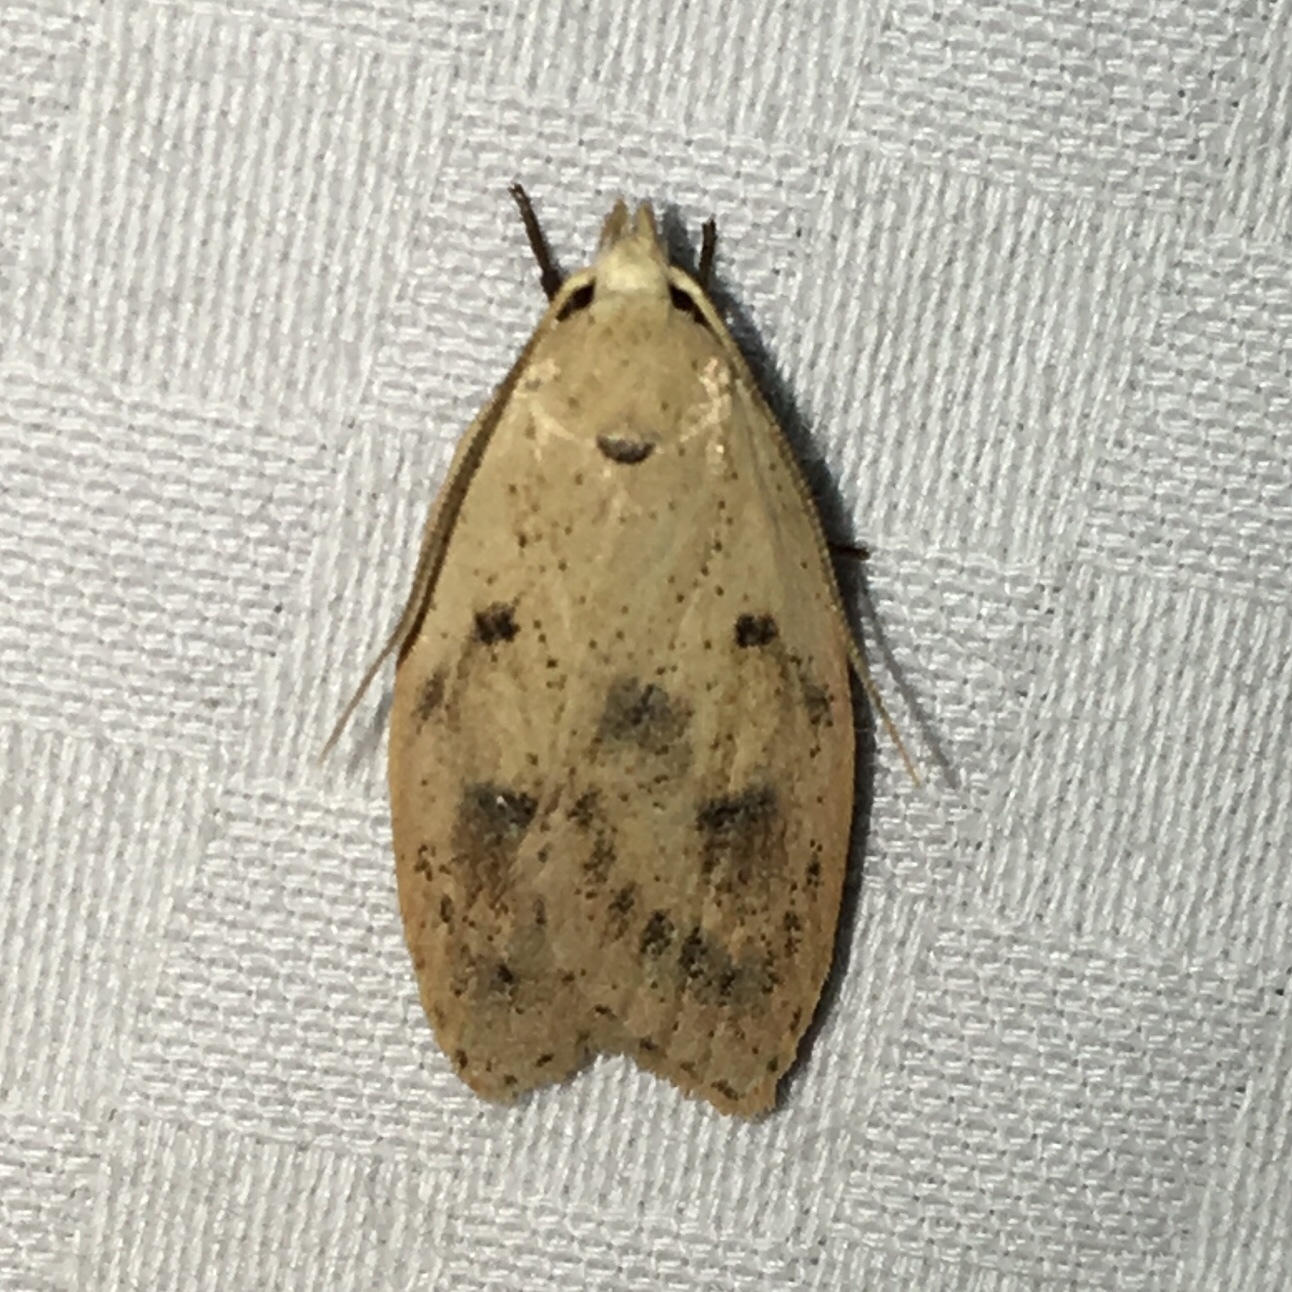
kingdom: Animalia
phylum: Arthropoda
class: Insecta
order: Lepidoptera
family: Peleopodidae
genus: Machimia
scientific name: Machimia tentoriferella
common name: Gold-striped leaftier moth
